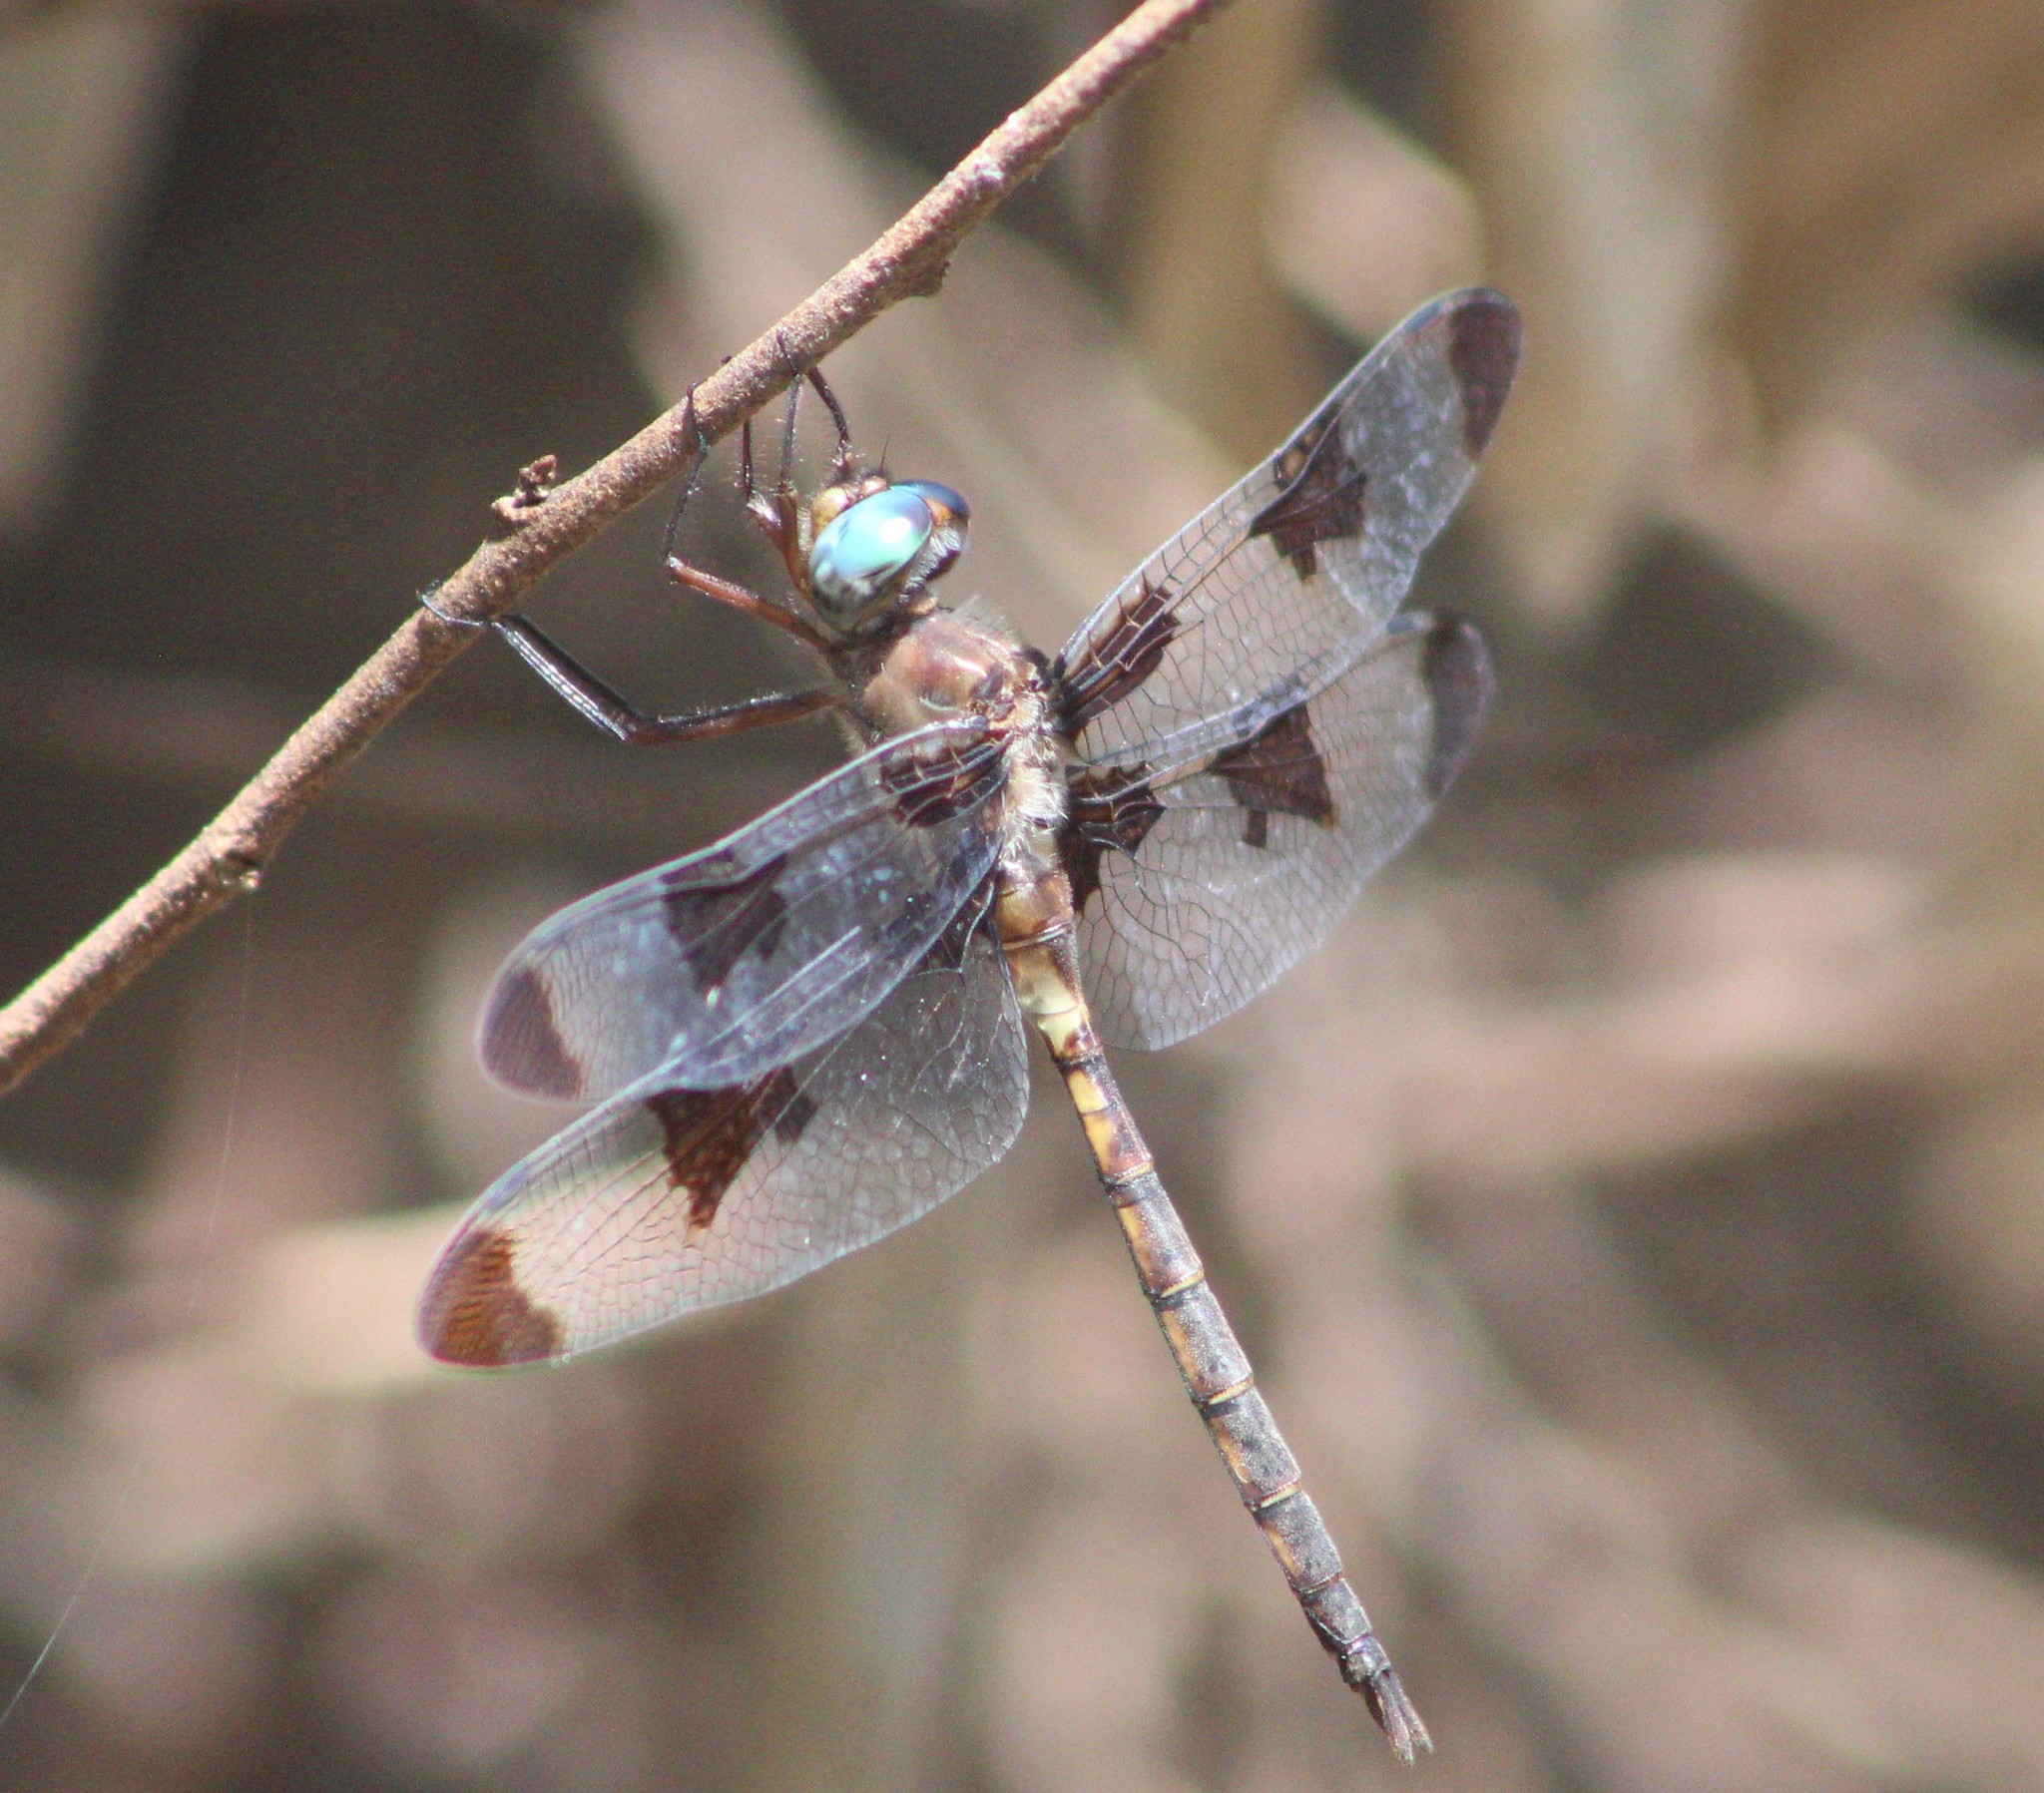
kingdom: Animalia
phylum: Arthropoda
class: Insecta
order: Odonata
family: Corduliidae
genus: Epitheca
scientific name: Epitheca princeps
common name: Prince baskettail
